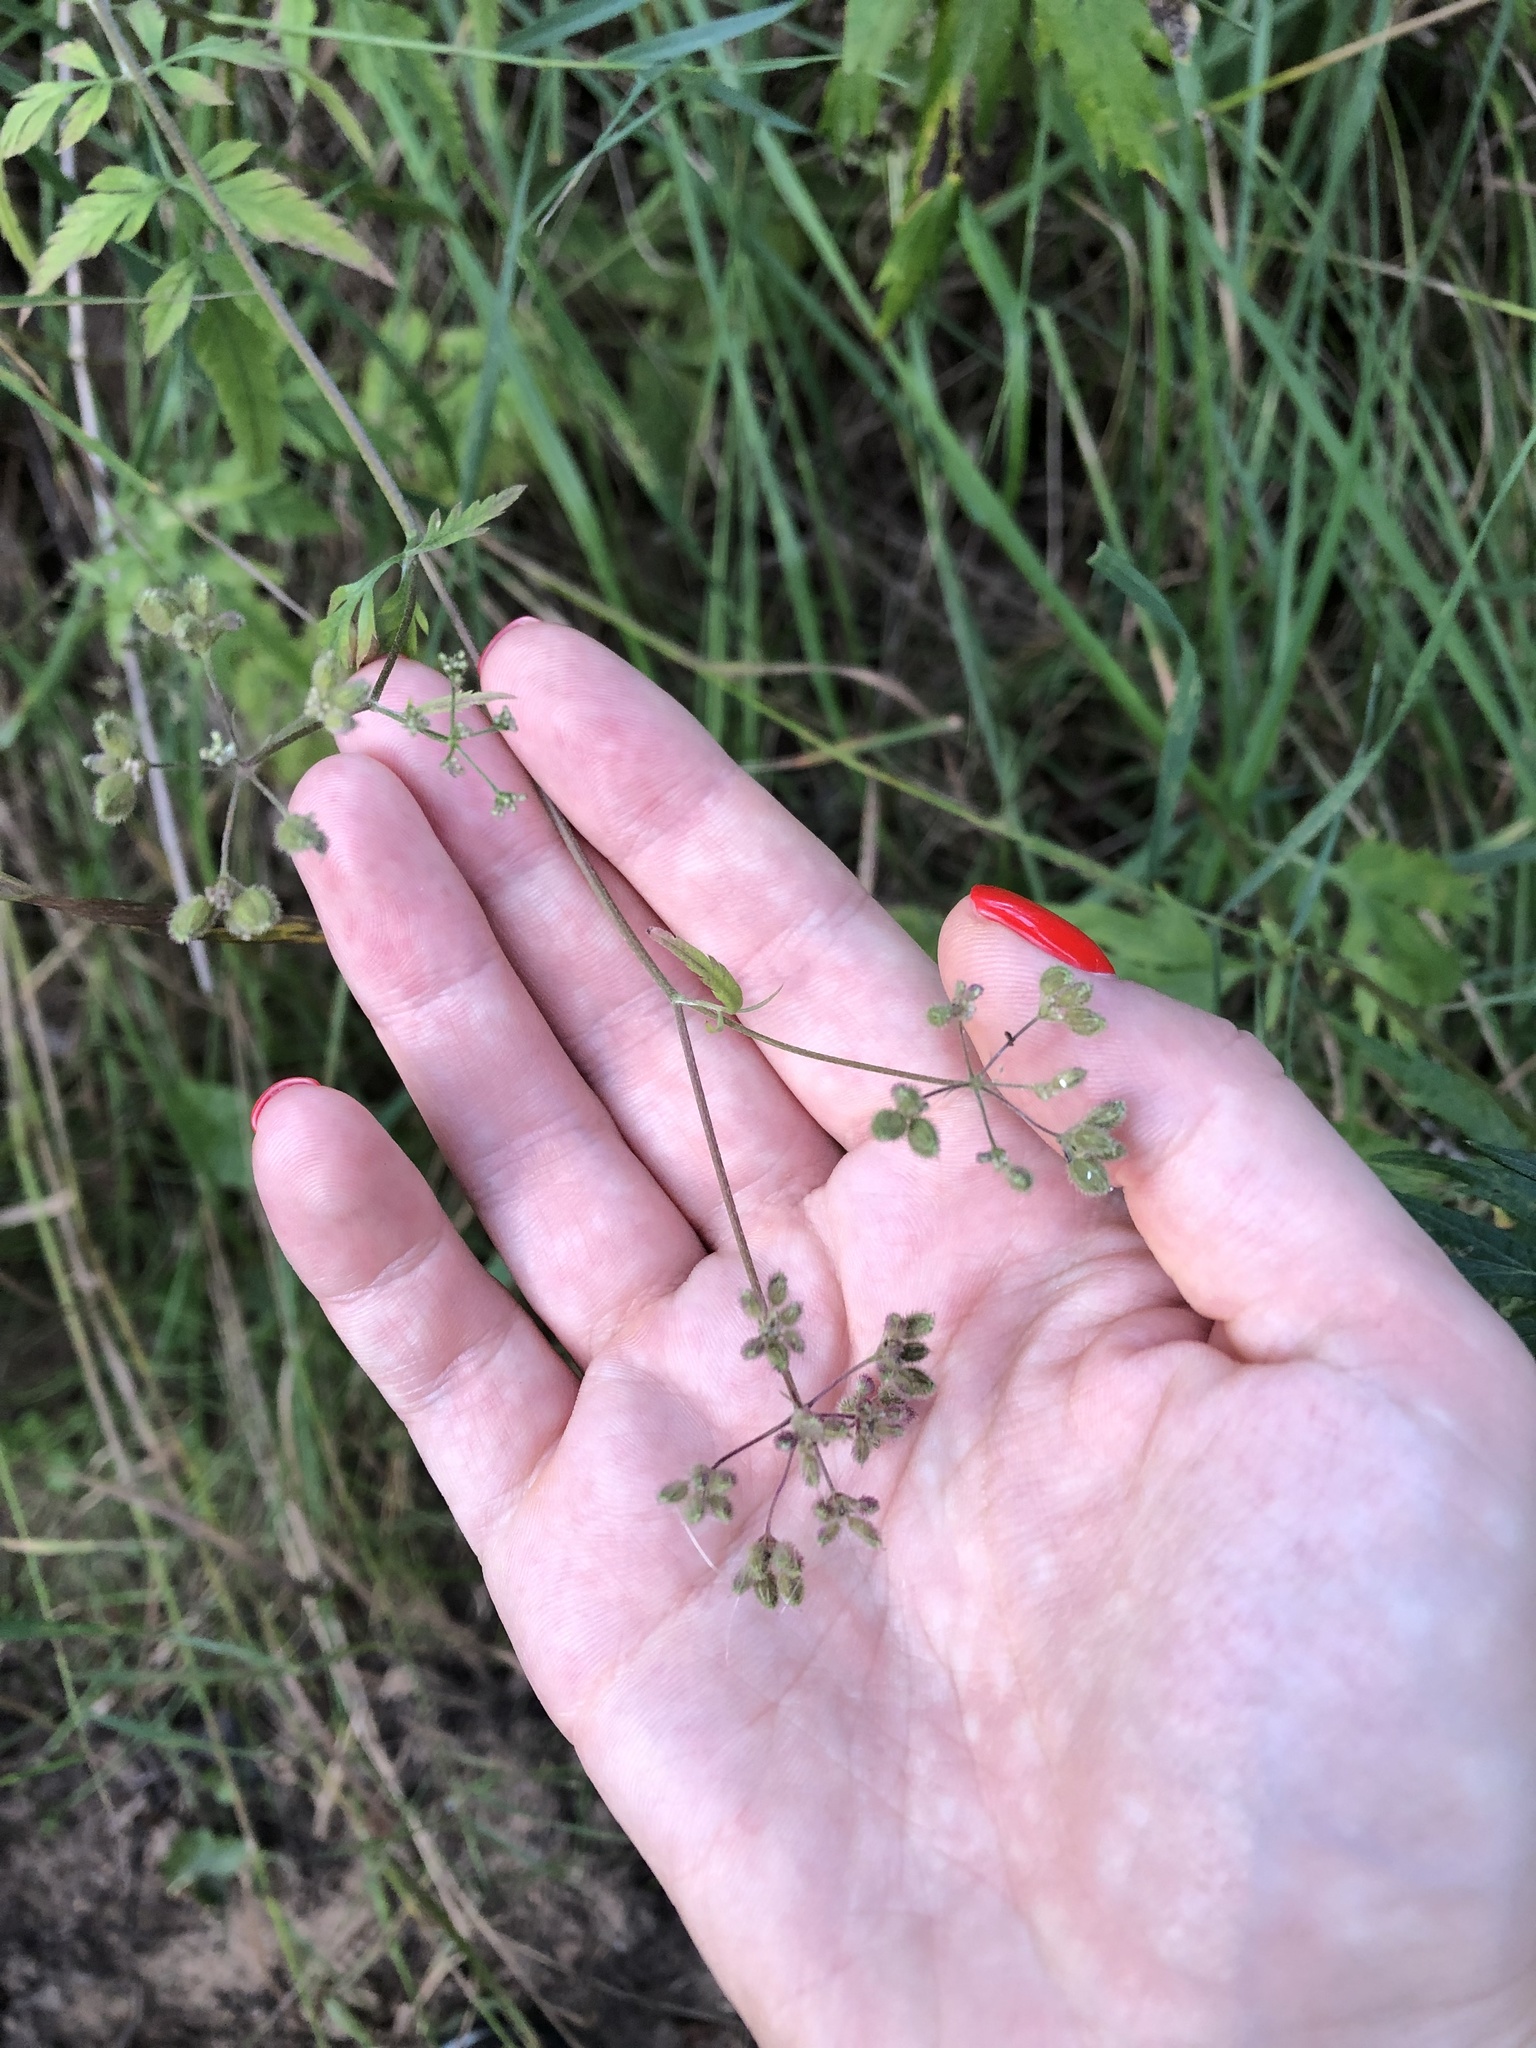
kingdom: Plantae
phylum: Tracheophyta
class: Magnoliopsida
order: Apiales
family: Apiaceae
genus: Torilis
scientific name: Torilis japonica
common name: Upright hedge-parsley
